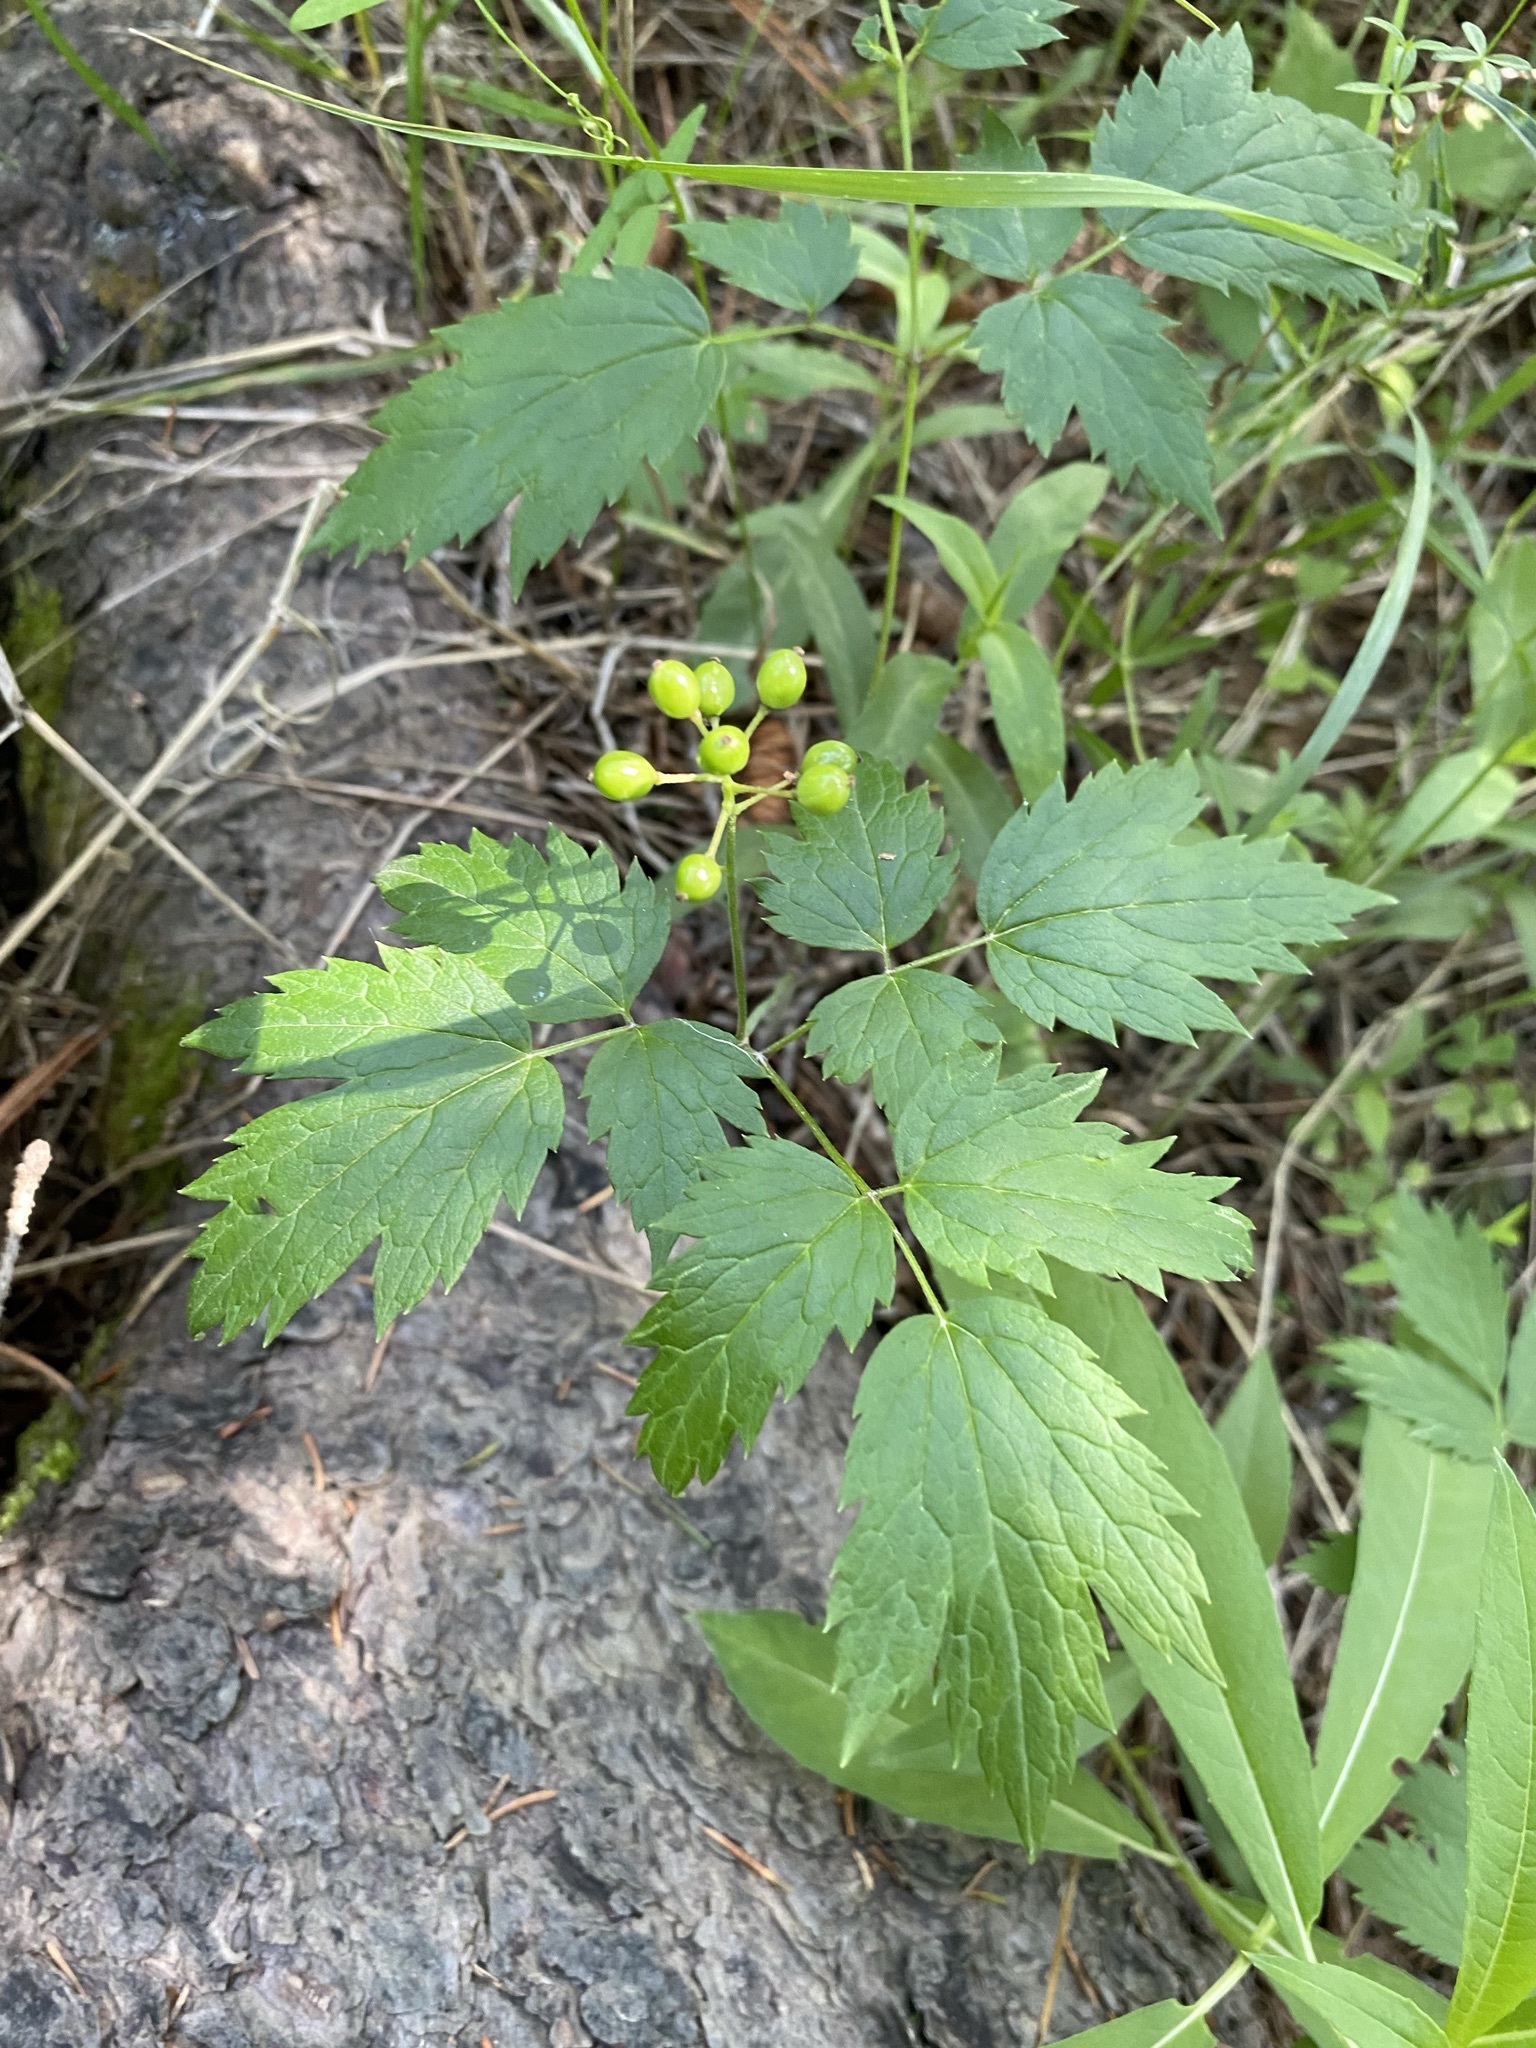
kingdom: Plantae
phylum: Tracheophyta
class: Magnoliopsida
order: Ranunculales
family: Ranunculaceae
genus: Actaea
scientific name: Actaea rubra
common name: Red baneberry
